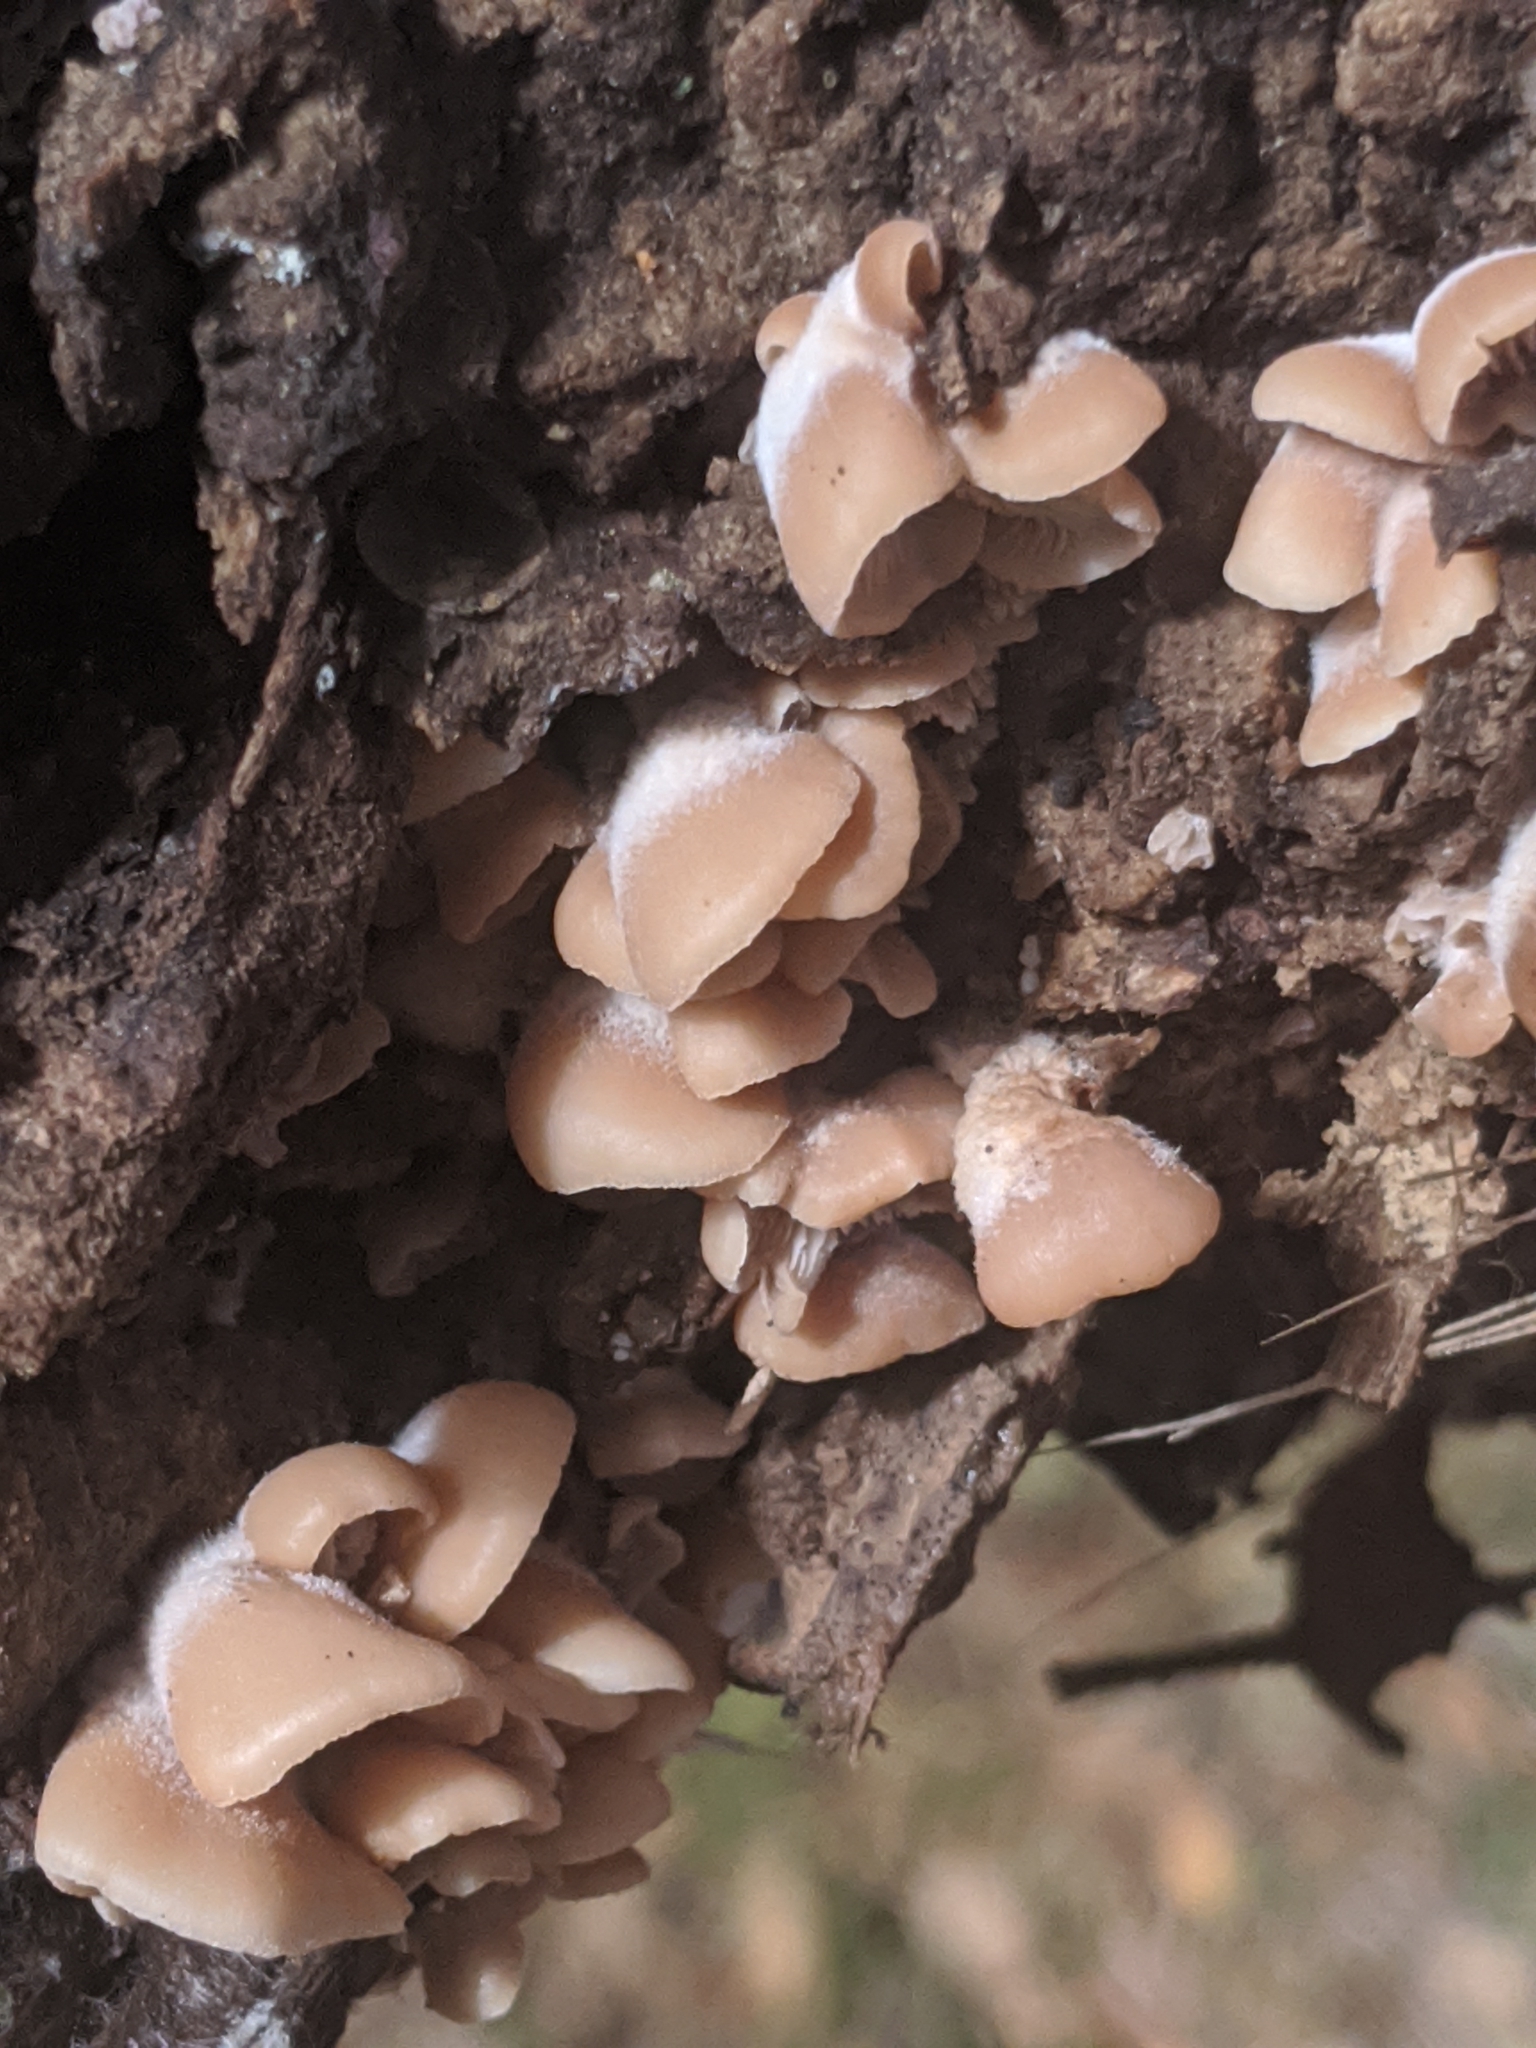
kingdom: Fungi
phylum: Basidiomycota
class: Agaricomycetes
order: Russulales
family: Auriscalpiaceae
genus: Lentinellus
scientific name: Lentinellus ursinus
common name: Bear lentinus
